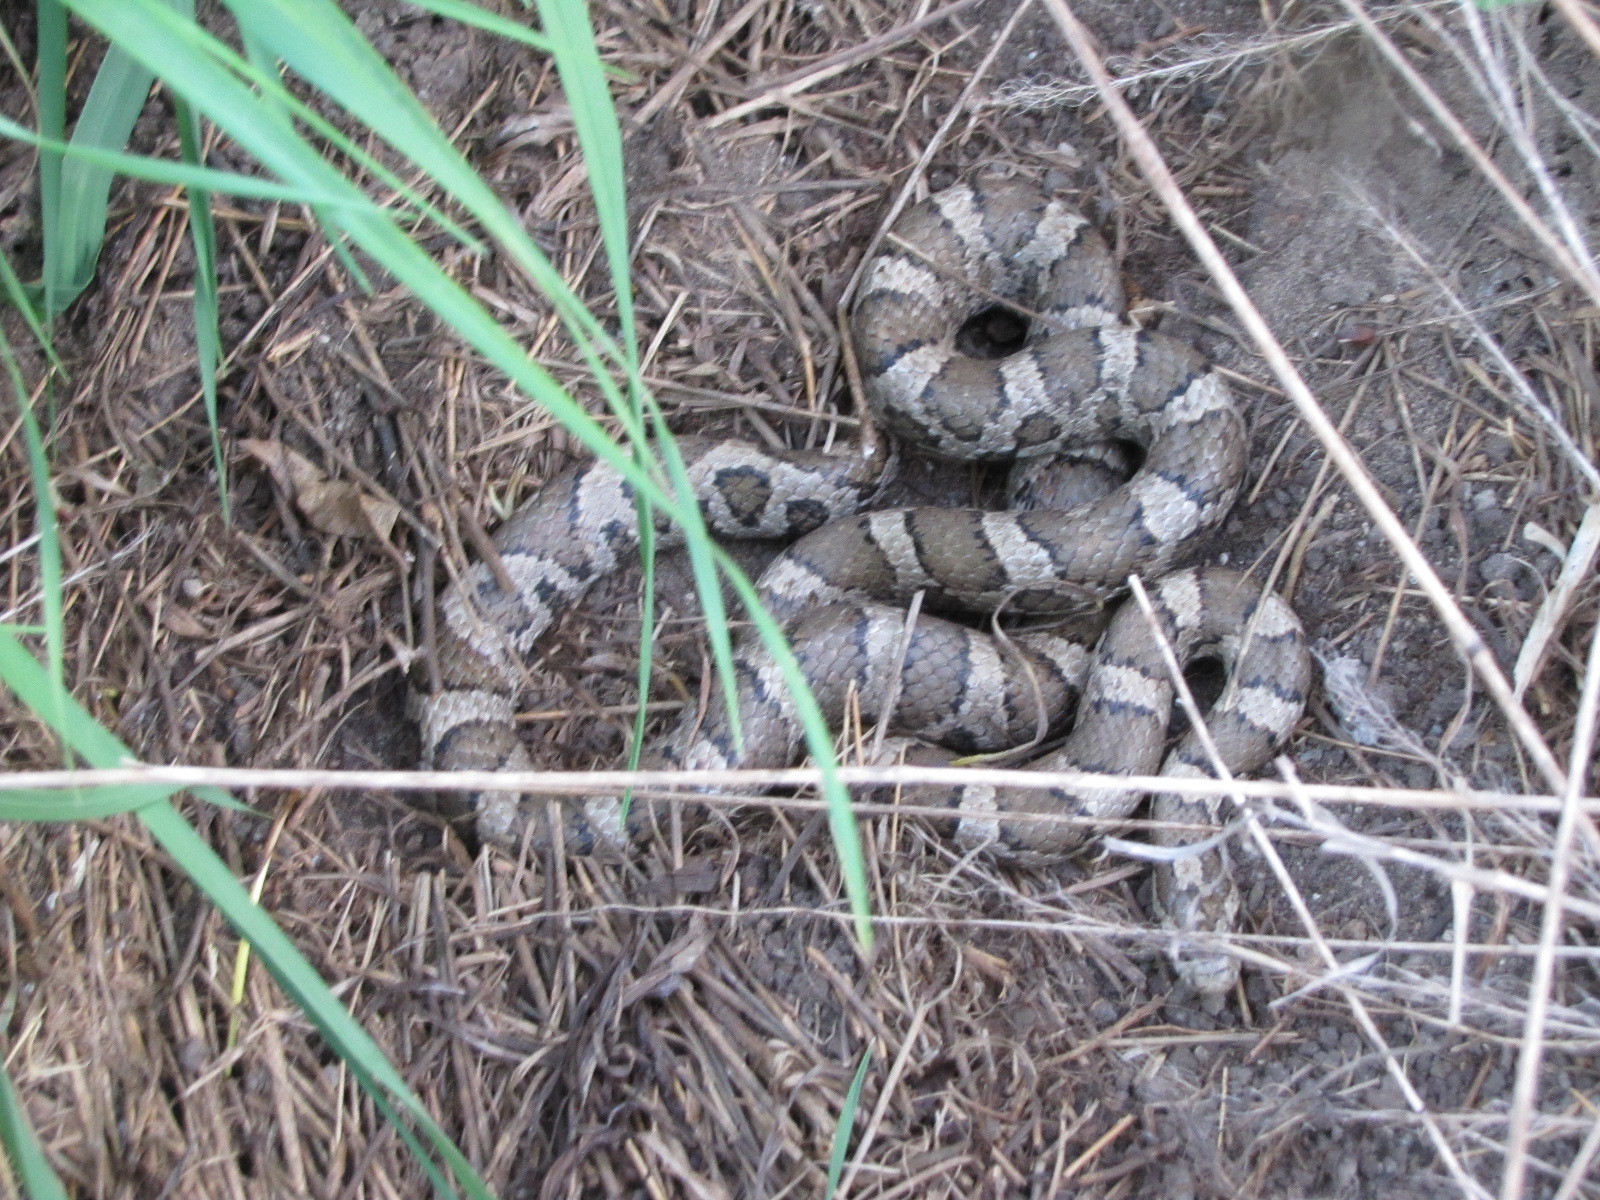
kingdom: Animalia
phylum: Chordata
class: Squamata
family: Colubridae
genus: Lampropeltis
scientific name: Lampropeltis triangulum
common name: Eastern milksnake
